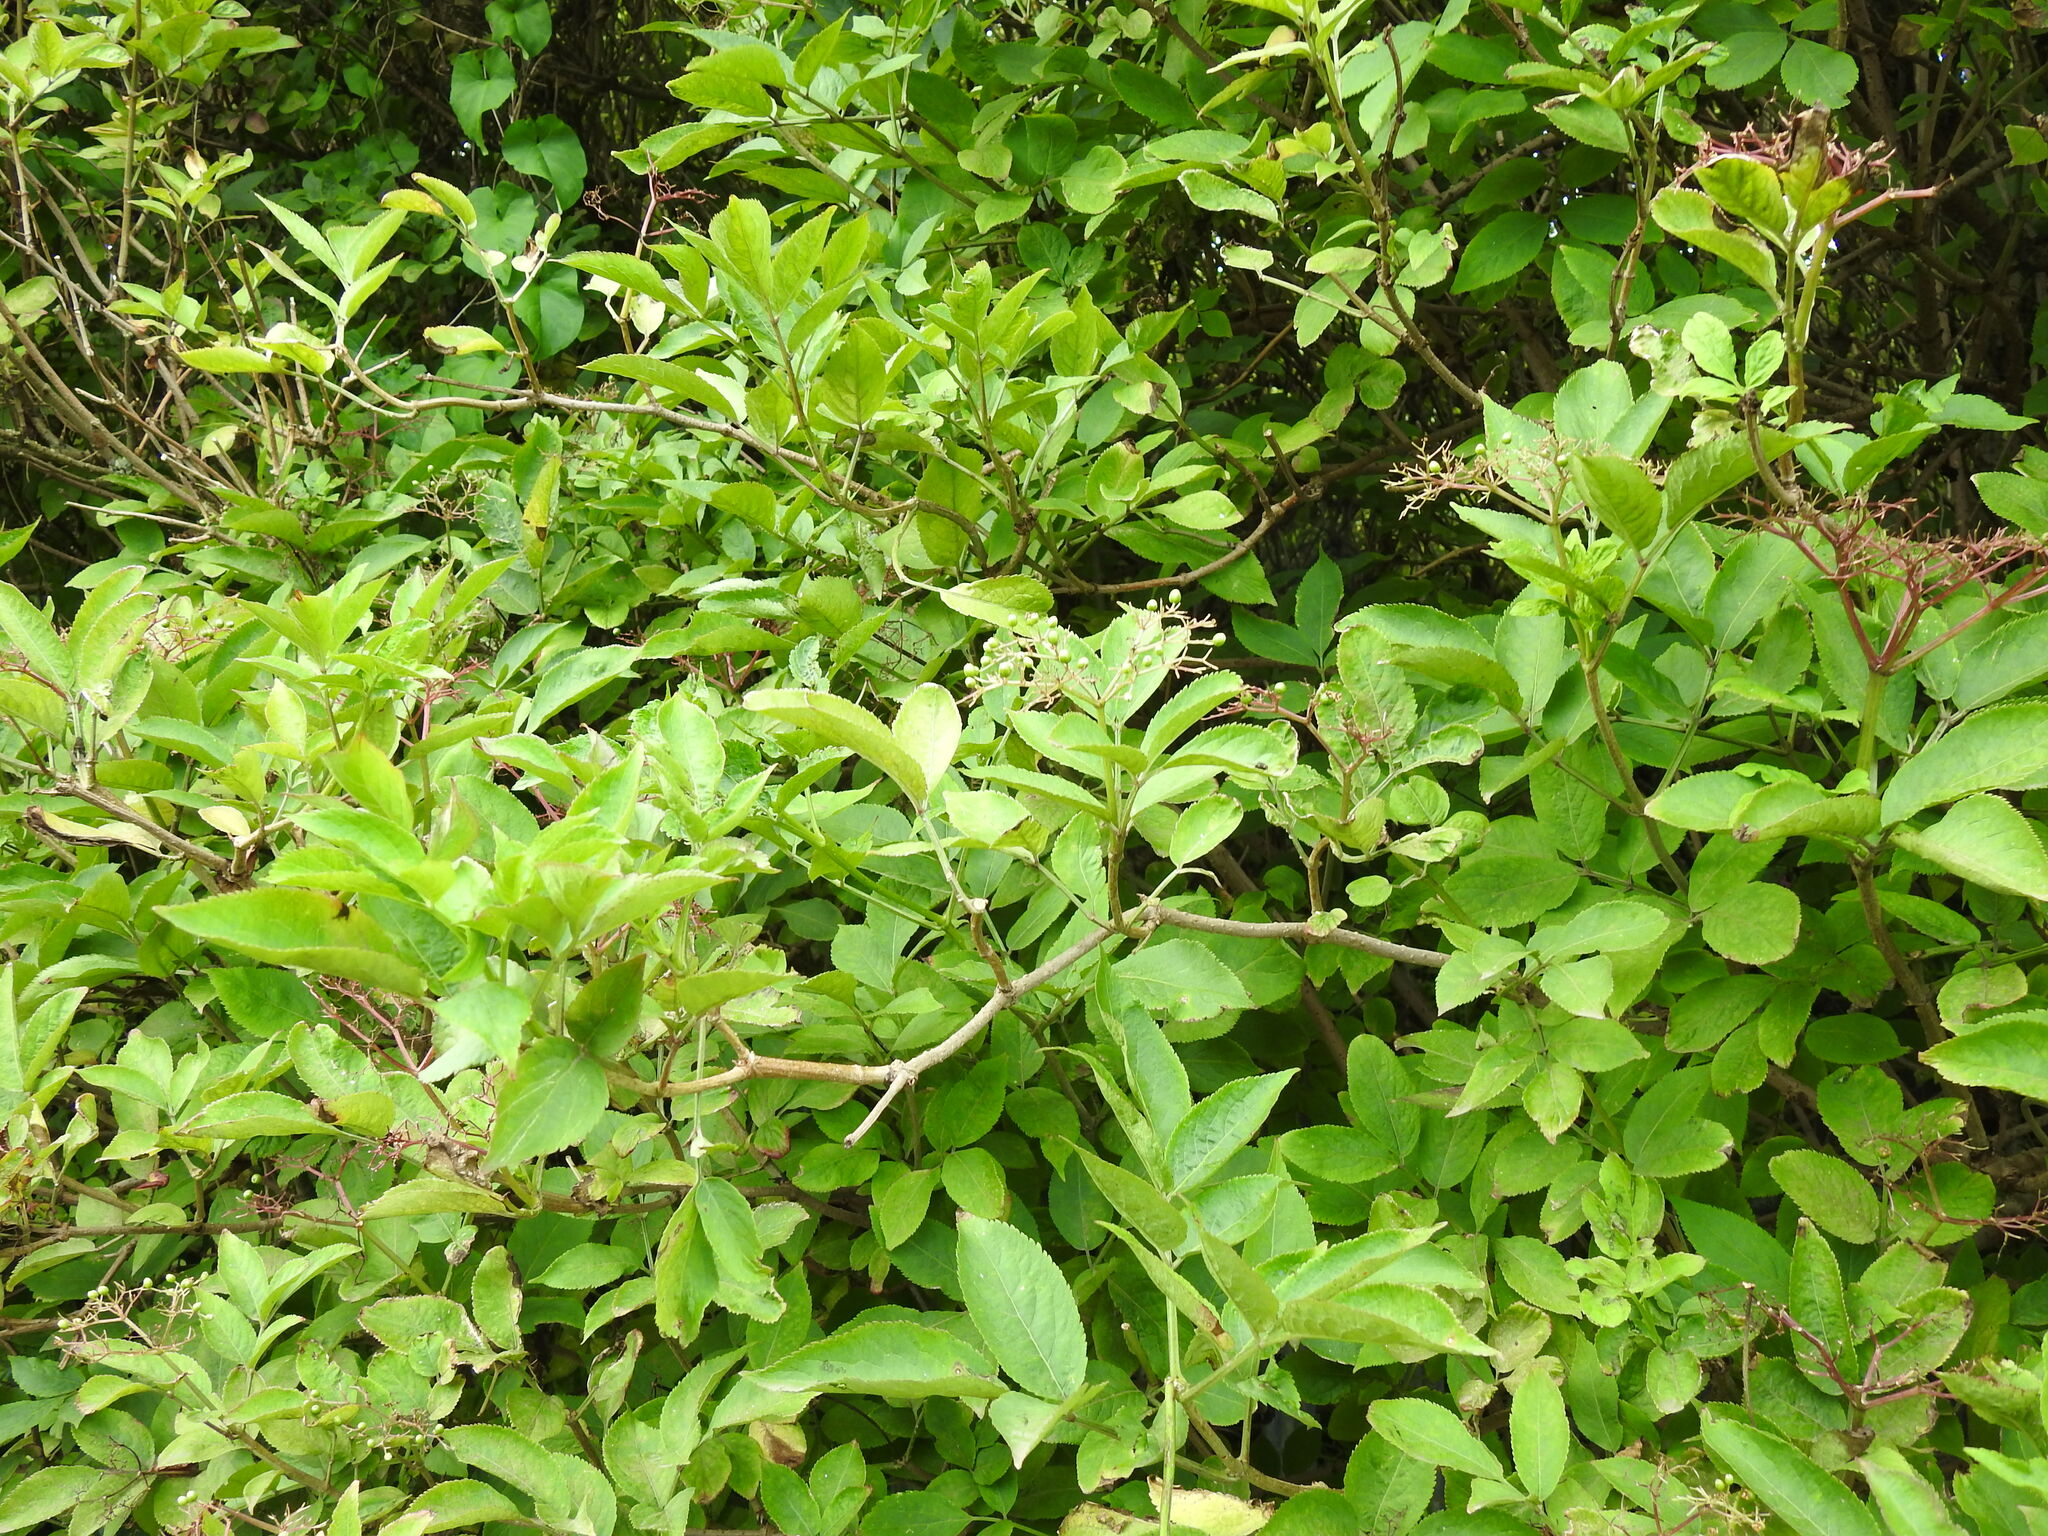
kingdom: Plantae
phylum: Tracheophyta
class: Magnoliopsida
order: Dipsacales
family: Viburnaceae
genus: Sambucus
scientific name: Sambucus nigra
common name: Elder
